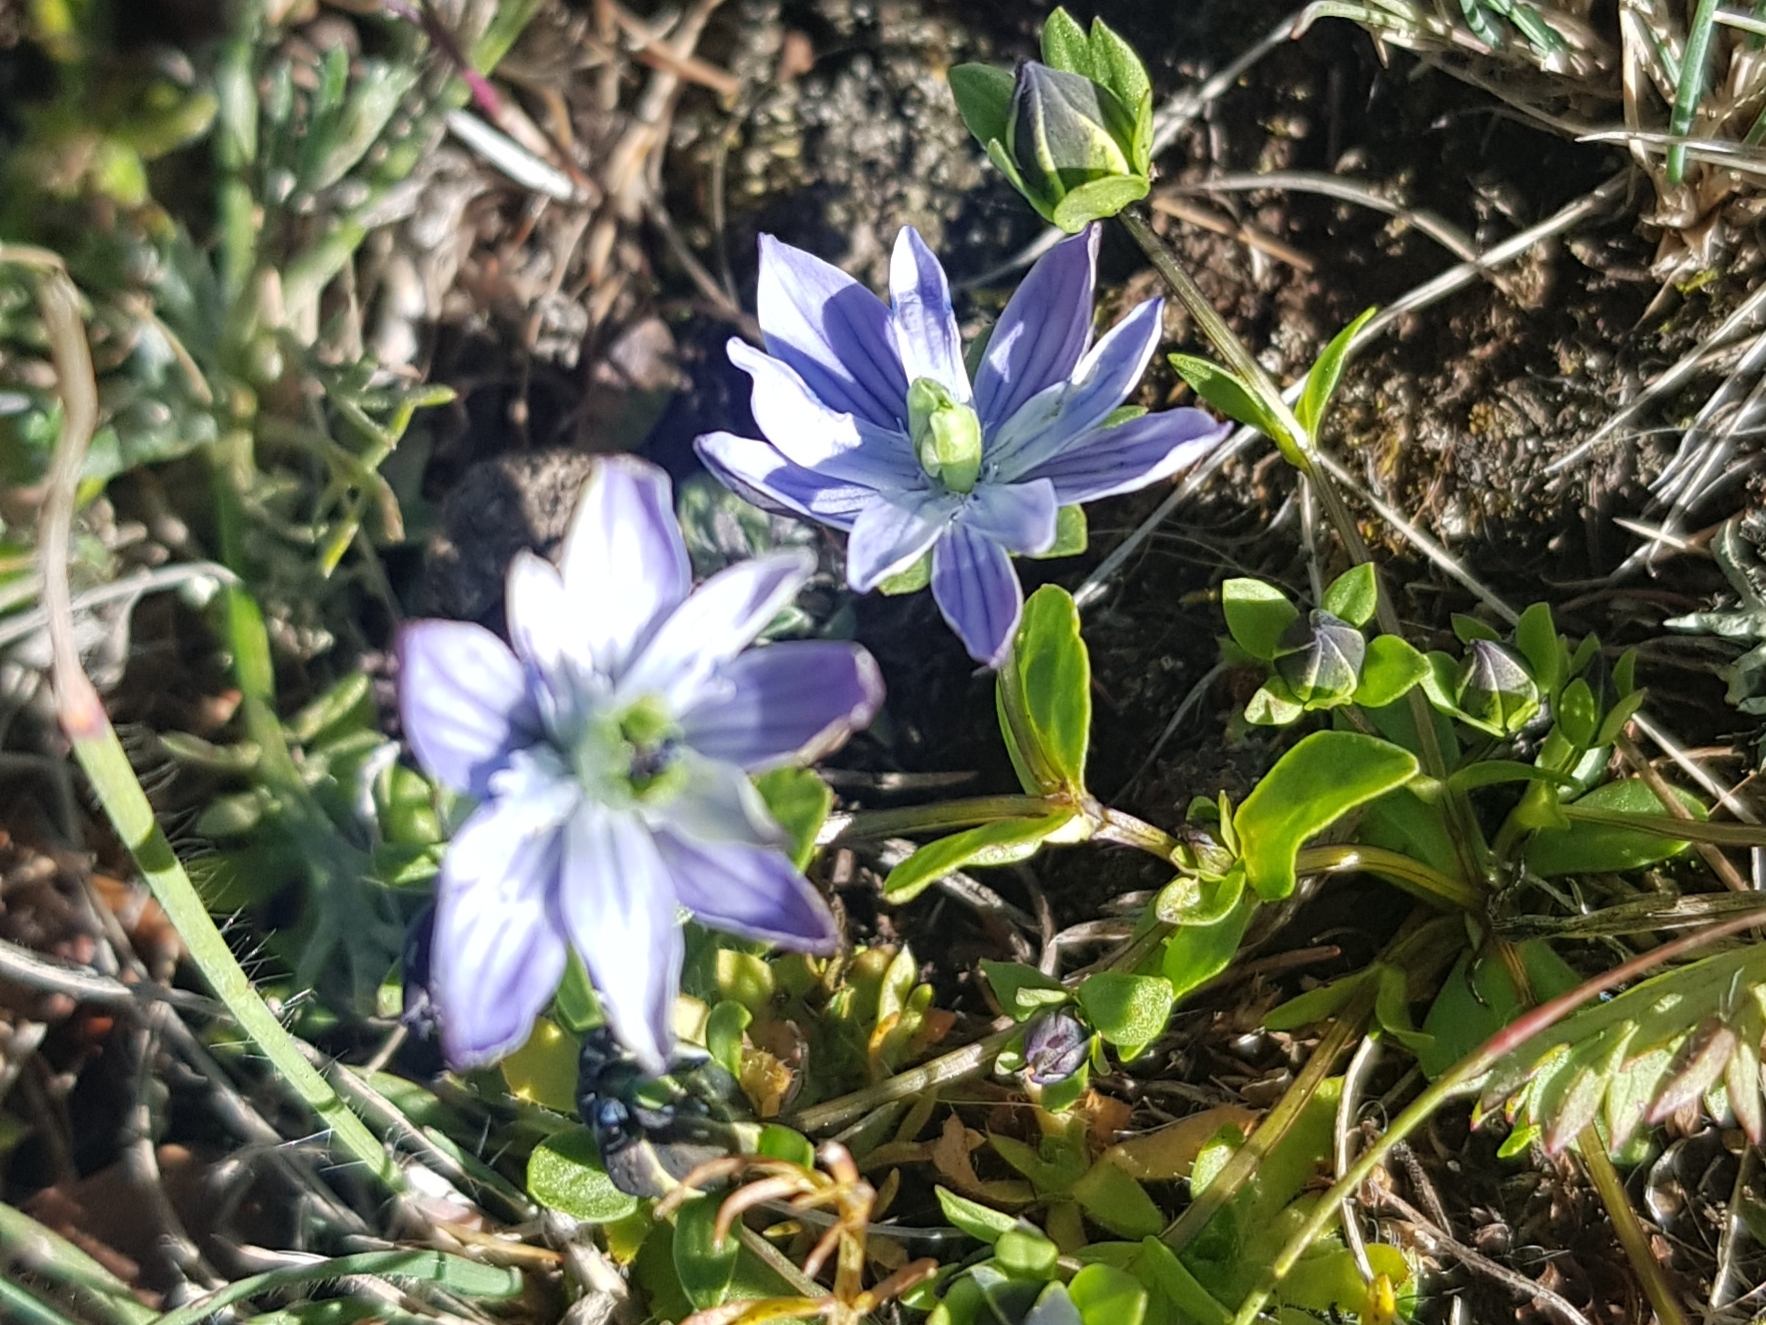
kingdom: Plantae
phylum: Tracheophyta
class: Magnoliopsida
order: Gentianales
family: Gentianaceae
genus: Lomatogonium
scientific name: Lomatogonium carinthiacum
